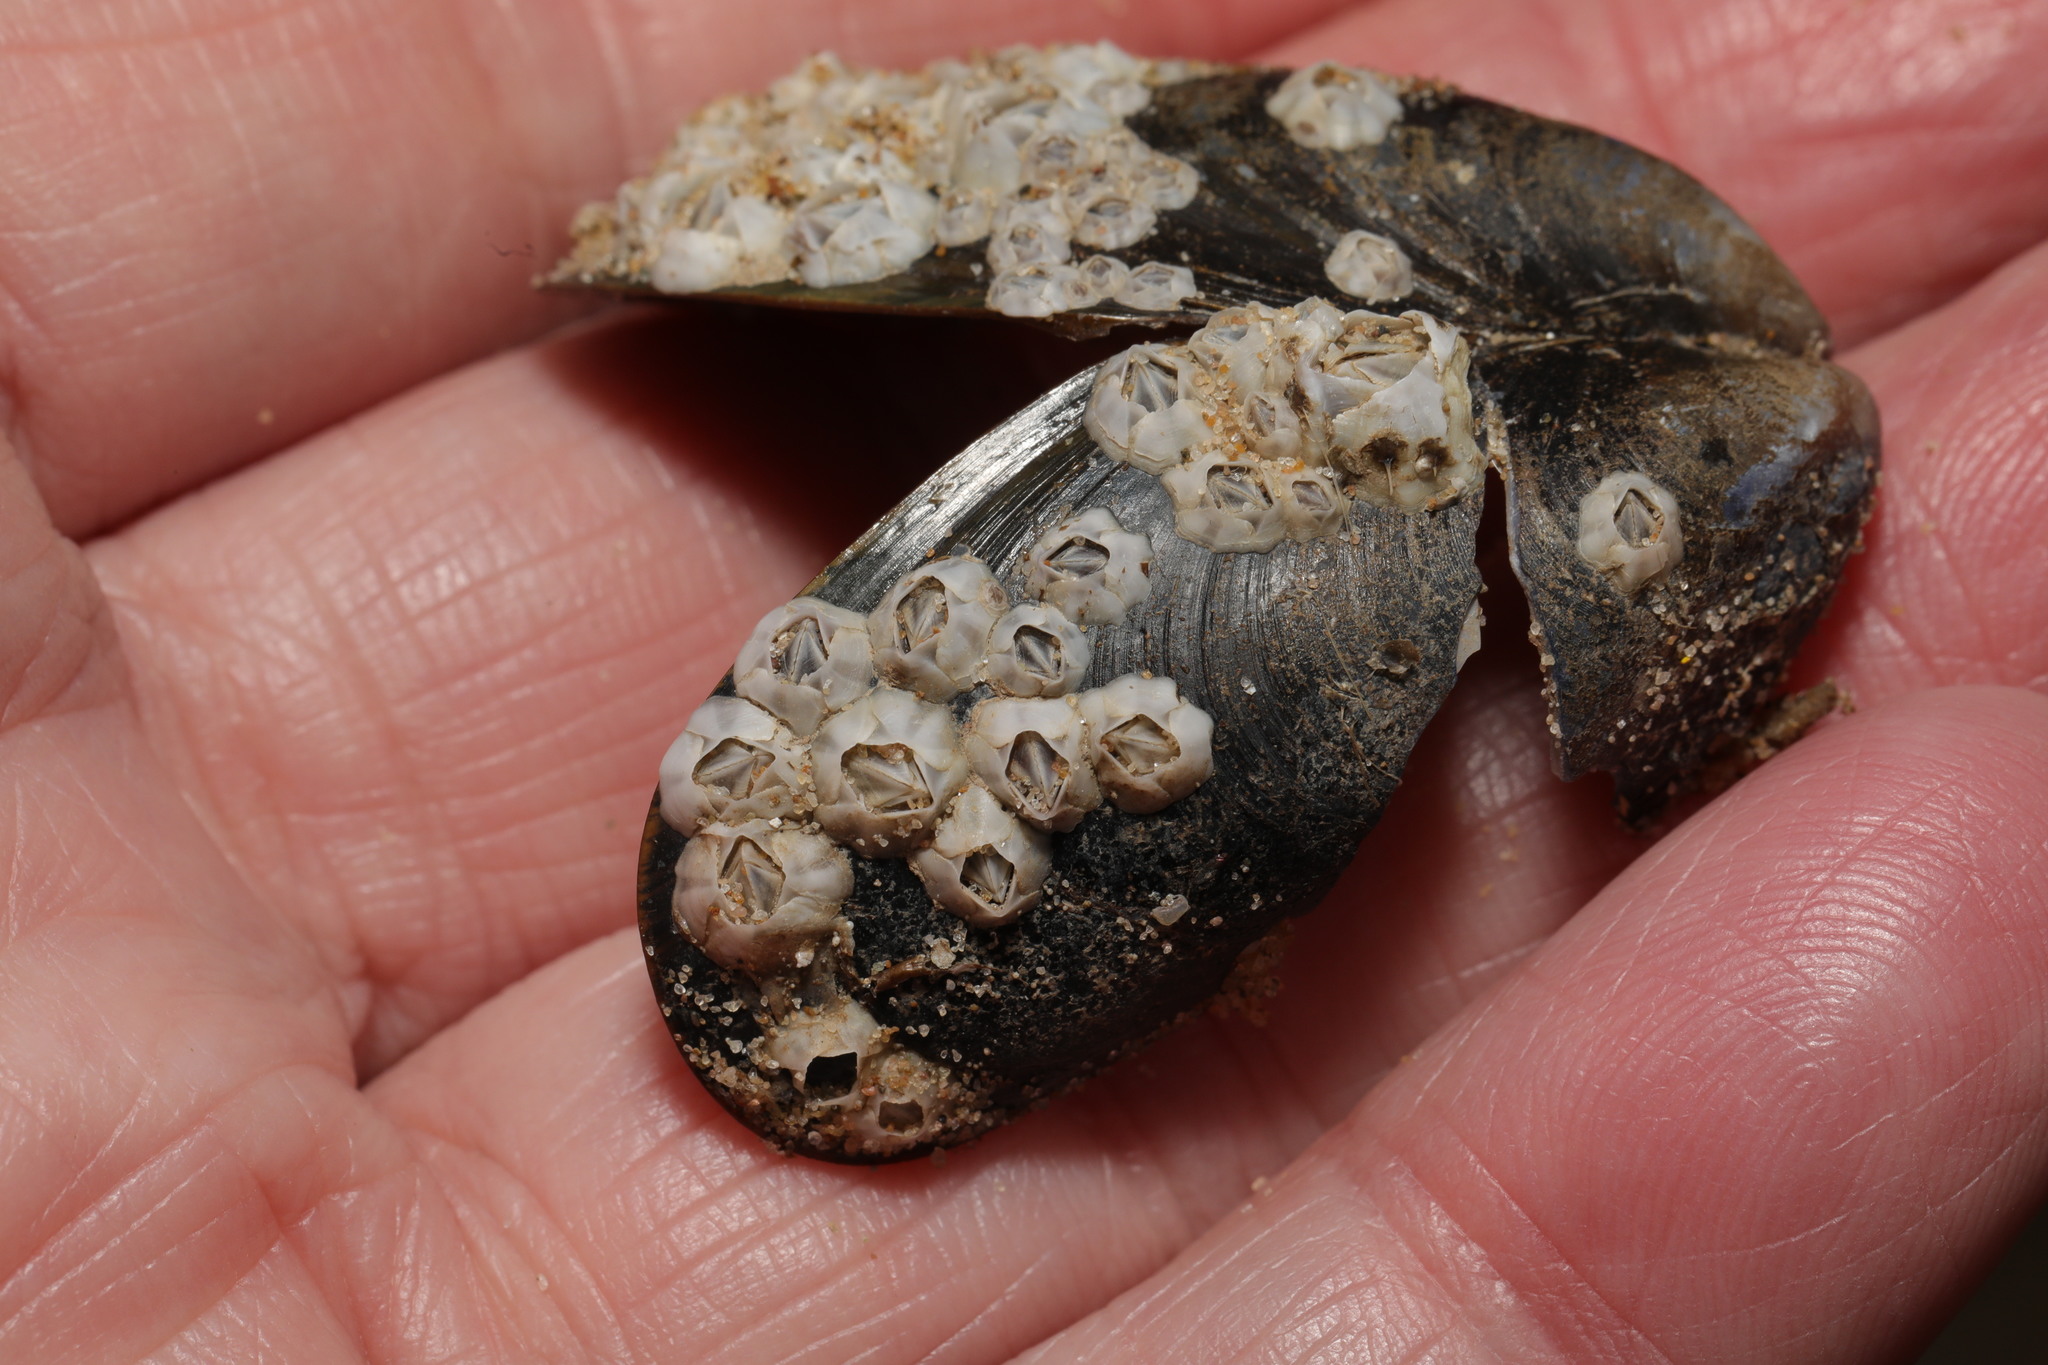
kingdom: Animalia
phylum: Arthropoda
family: Elminiidae
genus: Austrominius
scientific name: Austrominius modestus
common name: Australasian barnacle
